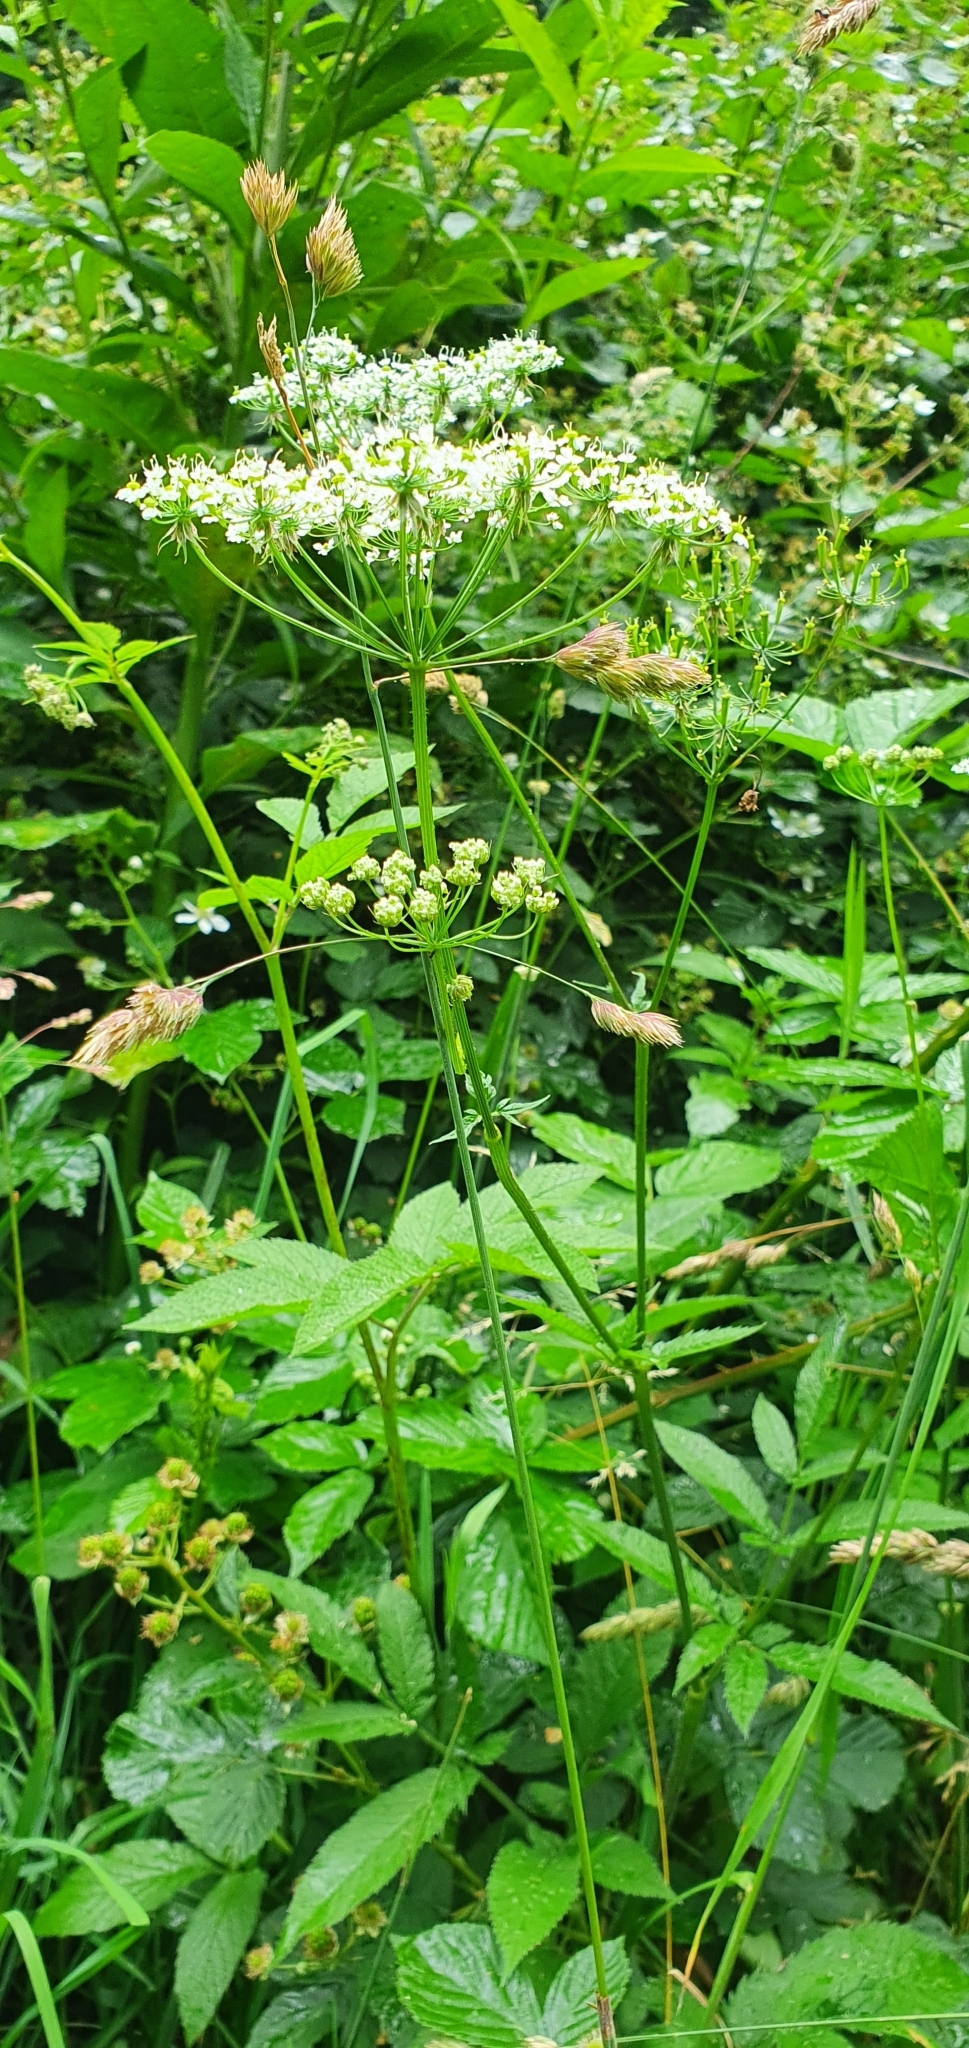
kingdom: Plantae
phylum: Tracheophyta
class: Magnoliopsida
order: Apiales
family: Apiaceae
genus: Chaerophyllum
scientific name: Chaerophyllum aromaticum
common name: Broadleaf chervil
